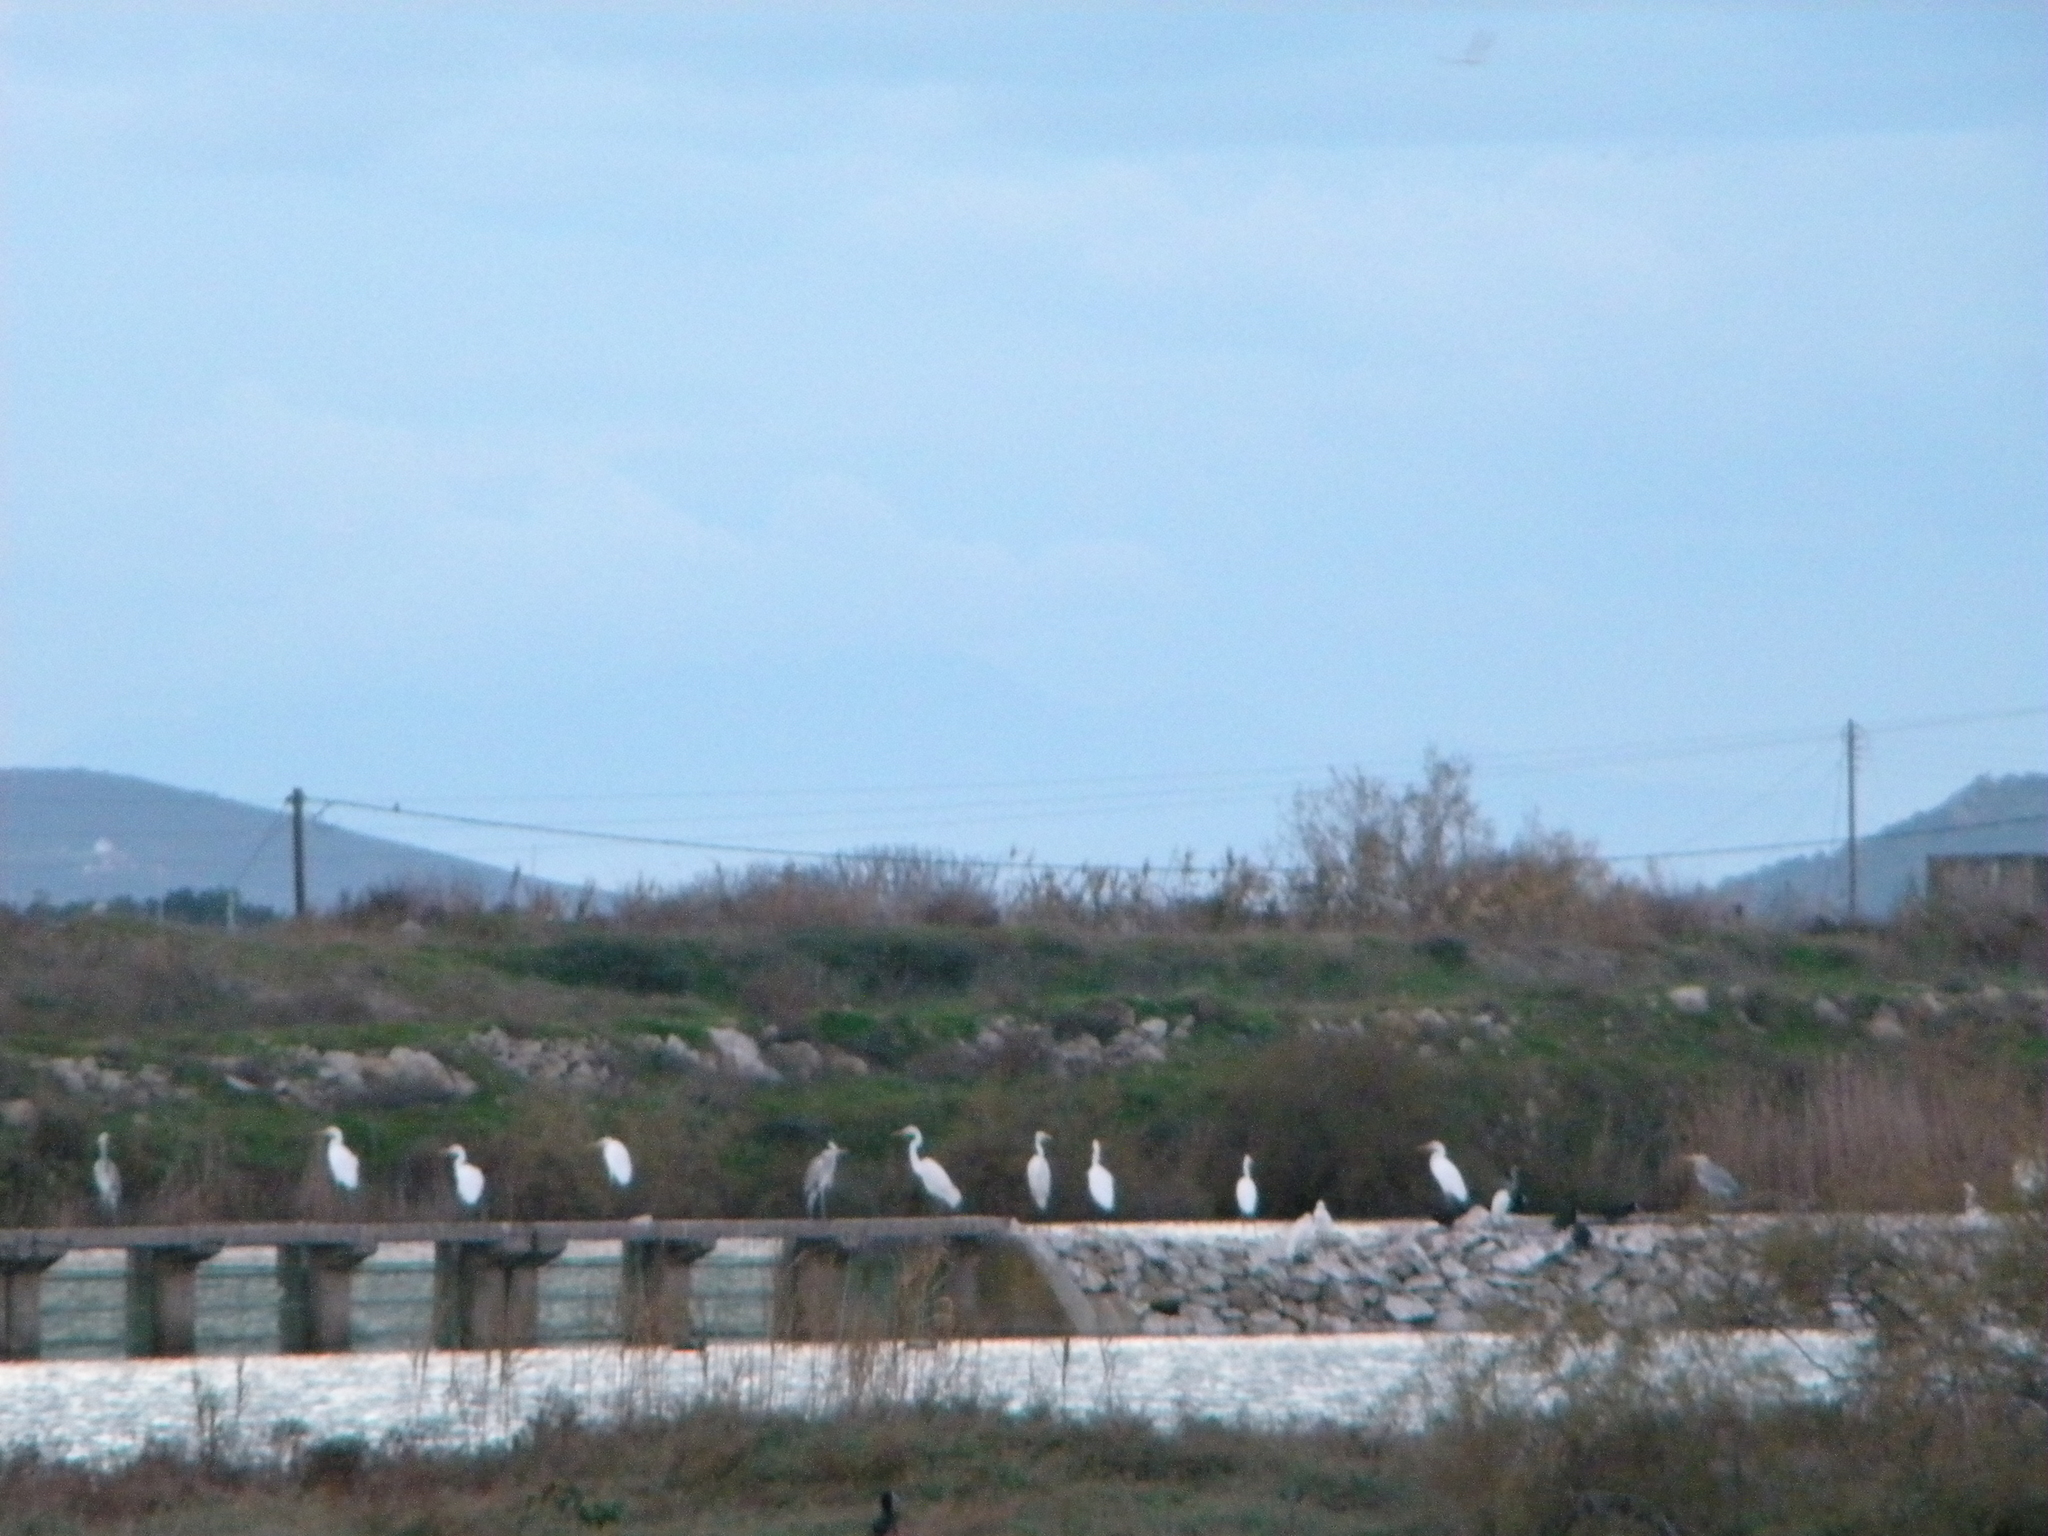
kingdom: Animalia
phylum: Chordata
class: Aves
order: Pelecaniformes
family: Ardeidae
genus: Ardea
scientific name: Ardea cinerea
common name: Grey heron
